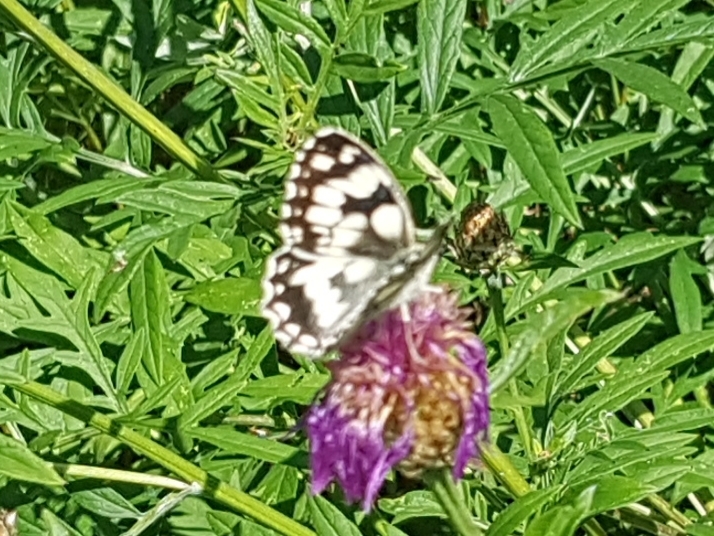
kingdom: Animalia
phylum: Arthropoda
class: Insecta
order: Lepidoptera
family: Nymphalidae
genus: Melanargia
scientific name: Melanargia galathea
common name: Marbled white
